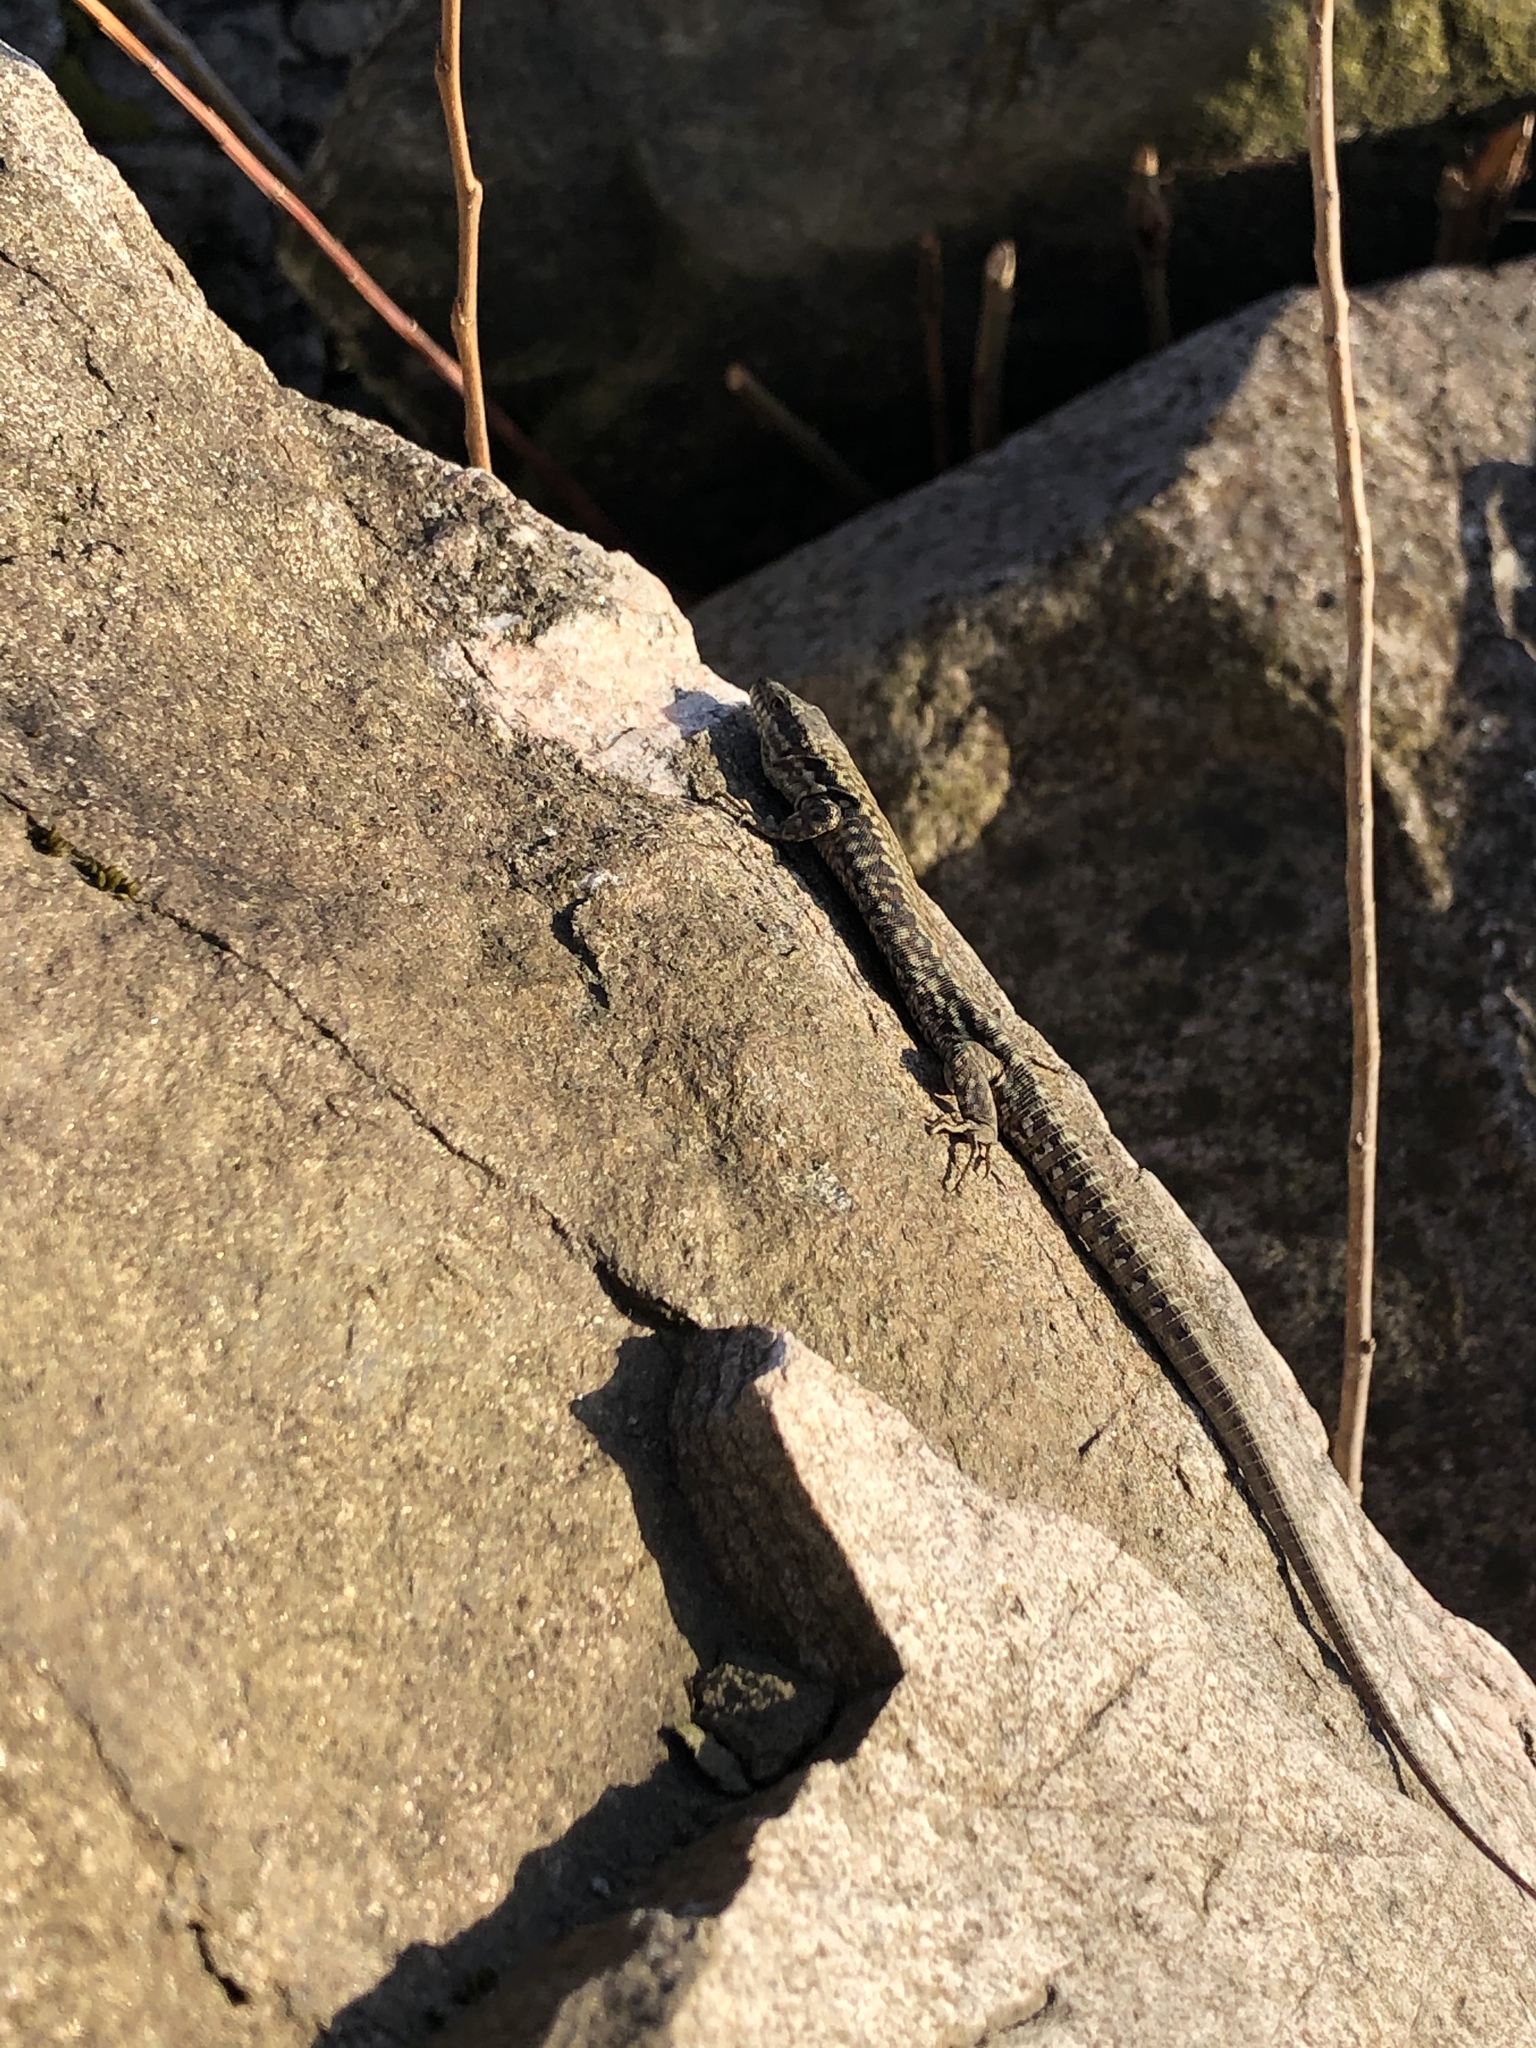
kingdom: Animalia
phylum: Chordata
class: Squamata
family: Lacertidae
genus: Podarcis
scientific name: Podarcis muralis
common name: Common wall lizard
